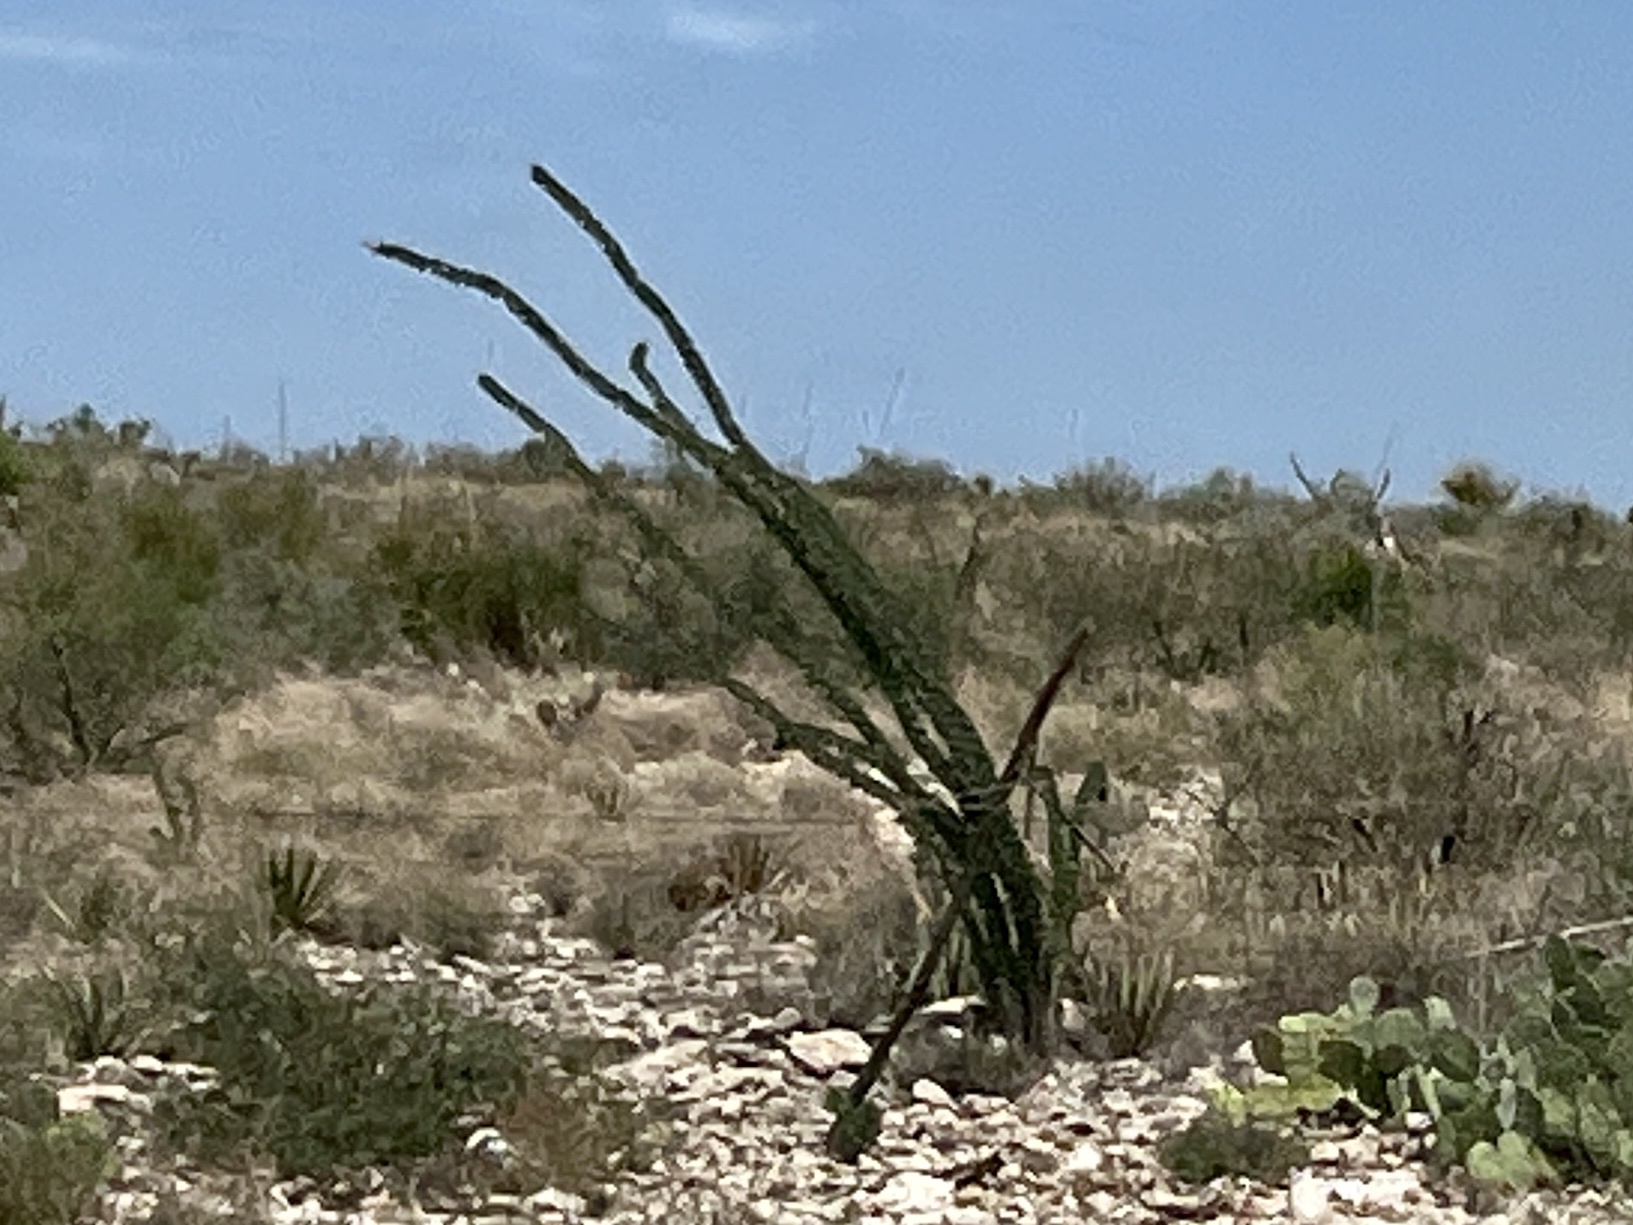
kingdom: Plantae
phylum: Tracheophyta
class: Magnoliopsida
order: Ericales
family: Fouquieriaceae
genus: Fouquieria
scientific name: Fouquieria splendens
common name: Vine-cactus
